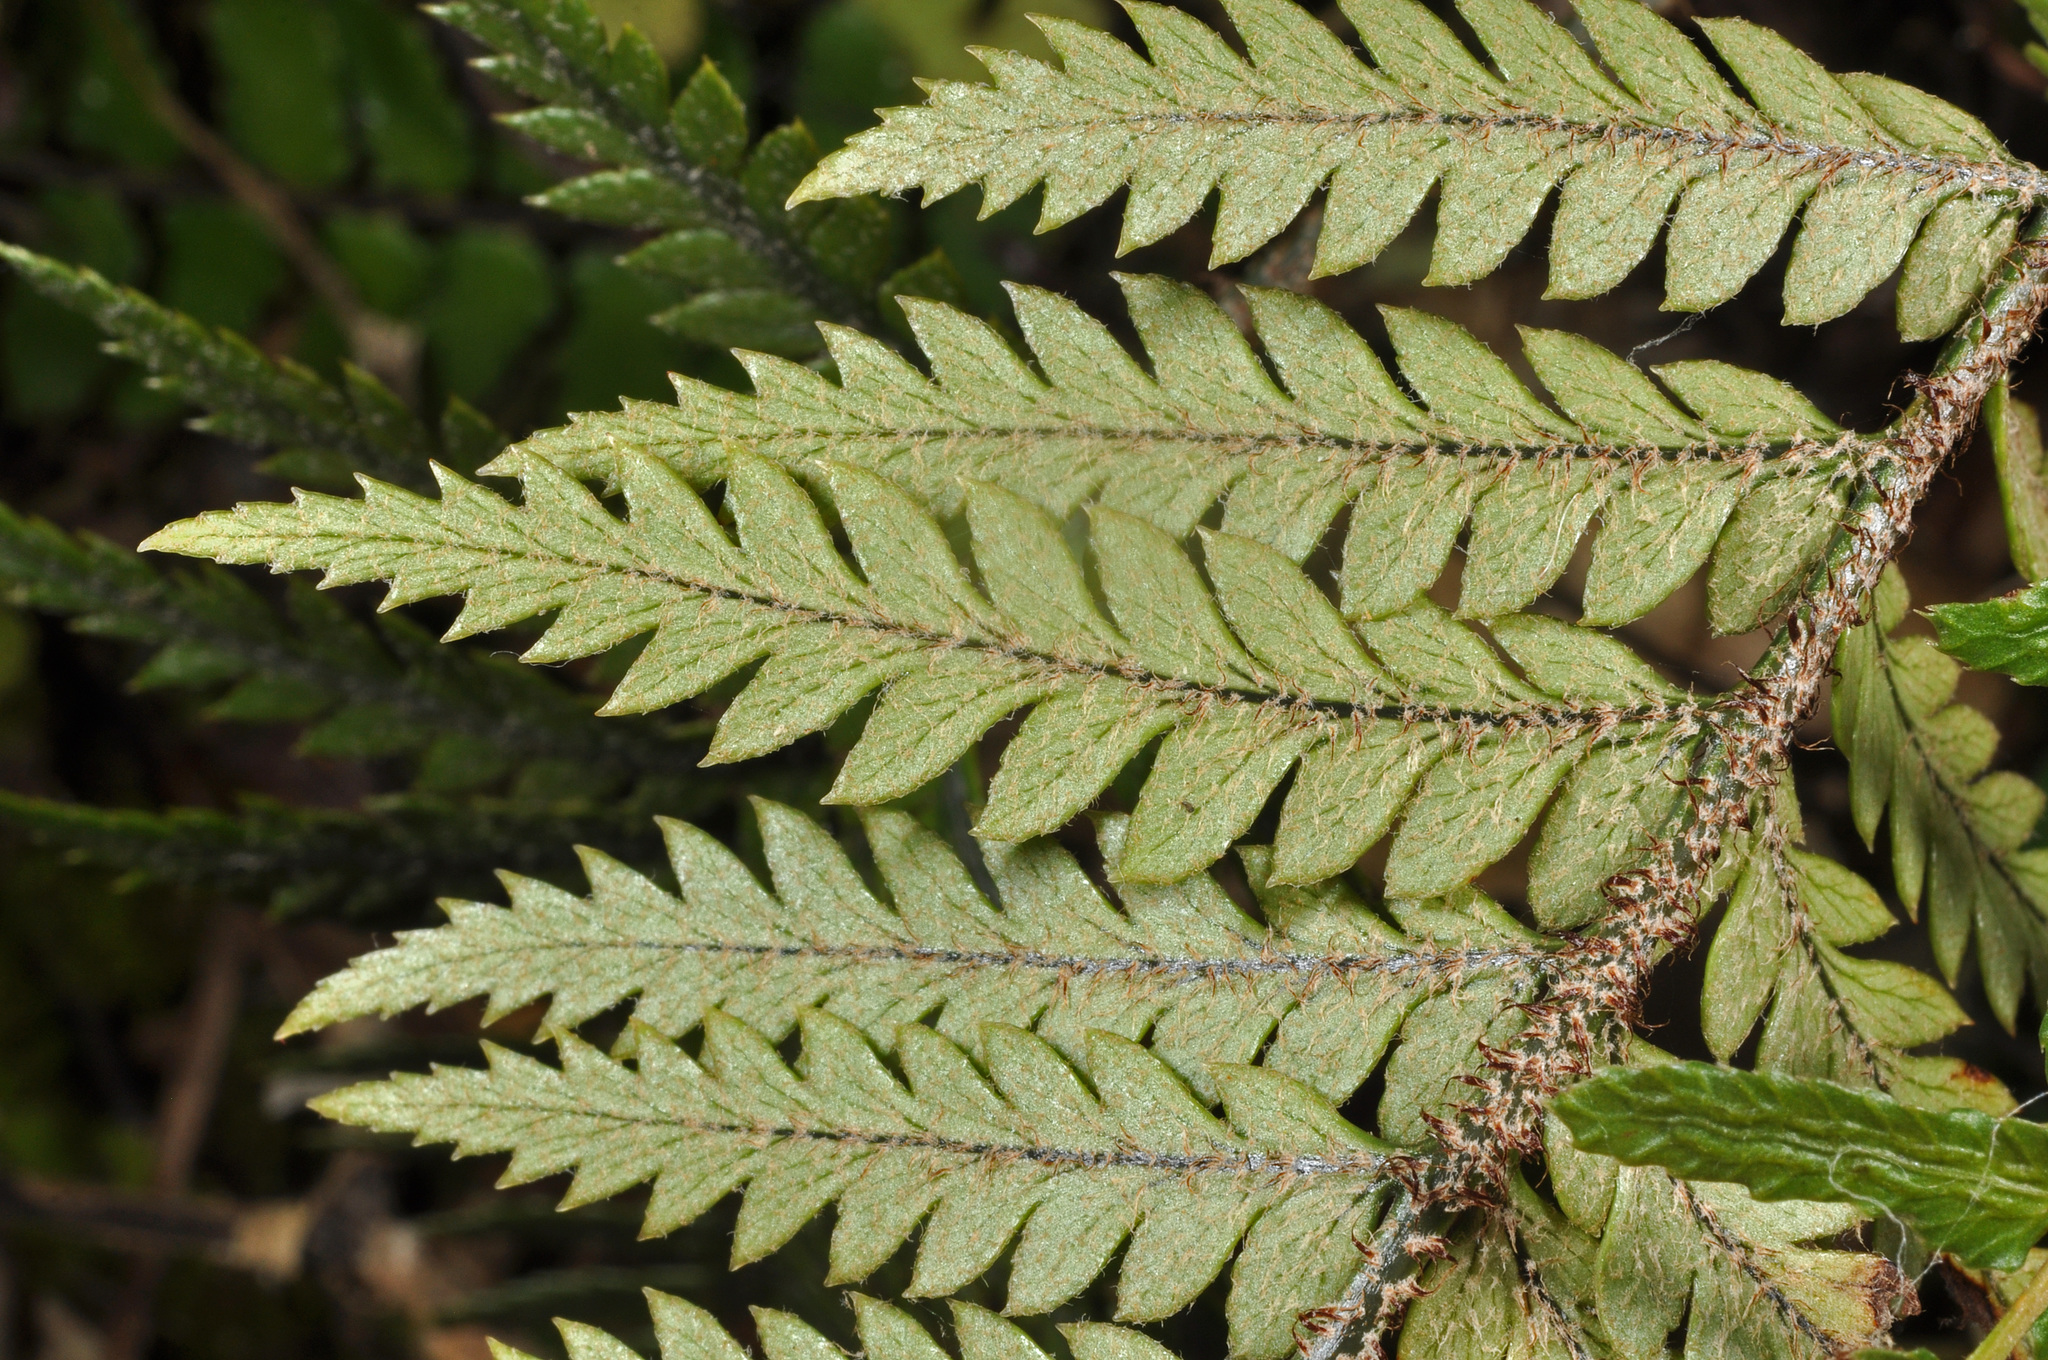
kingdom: Plantae
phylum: Tracheophyta
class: Polypodiopsida
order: Polypodiales
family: Dryopteridaceae
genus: Polystichum
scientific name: Polystichum neozelandicum
